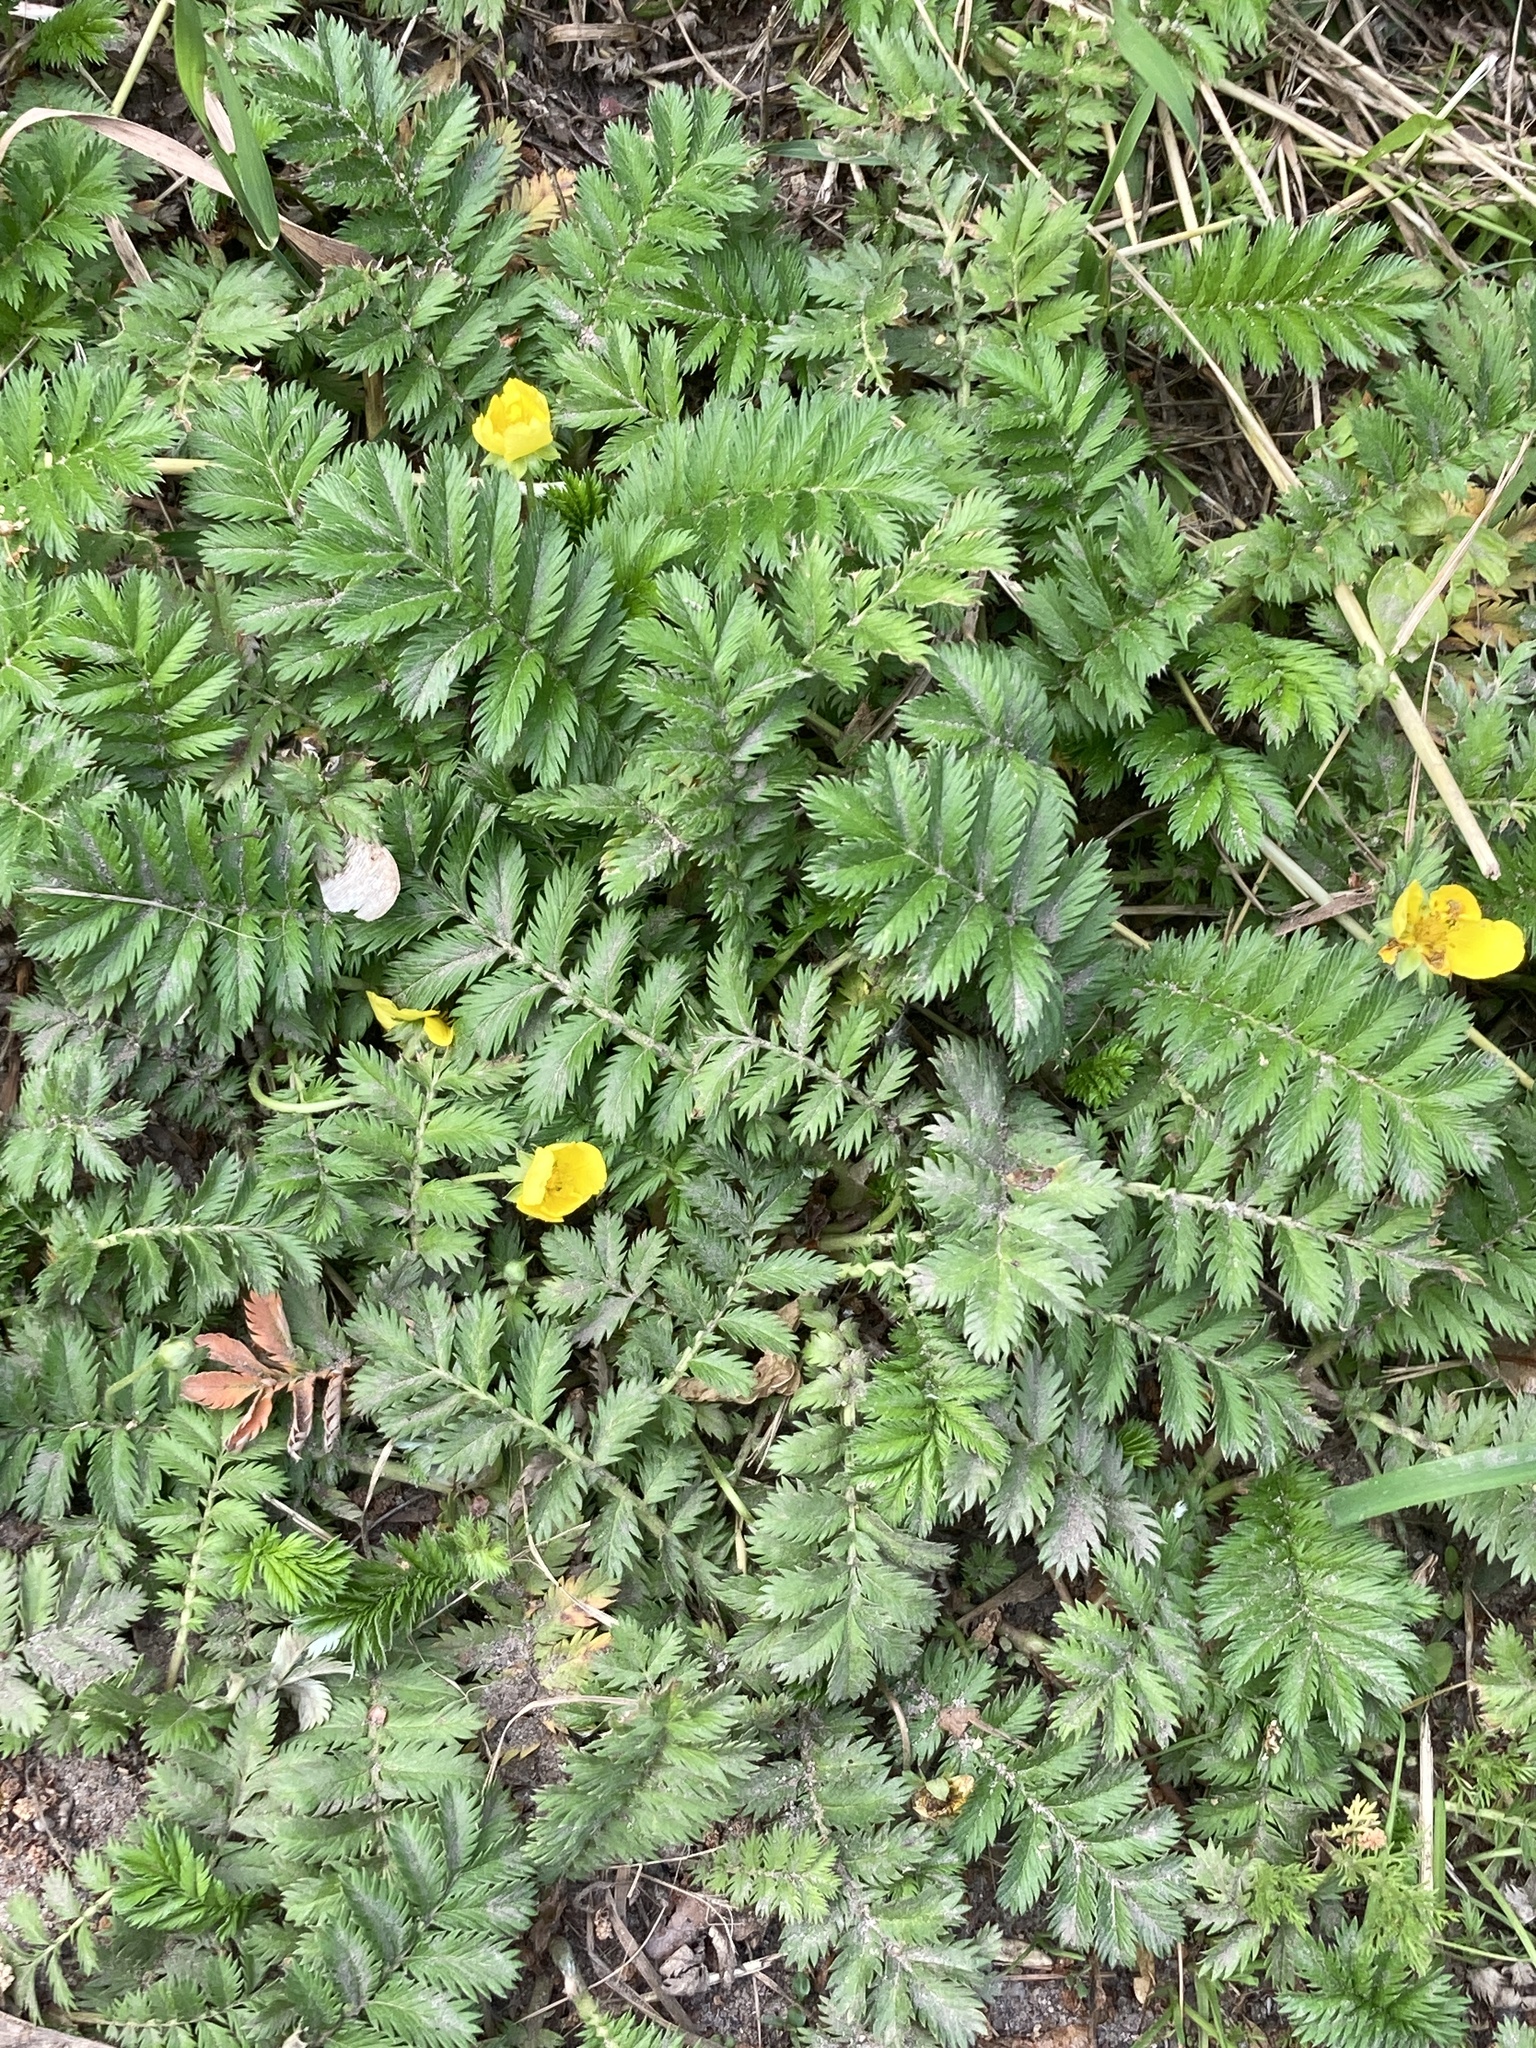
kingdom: Plantae
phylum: Tracheophyta
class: Magnoliopsida
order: Rosales
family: Rosaceae
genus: Argentina
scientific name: Argentina anserina
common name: Common silverweed
